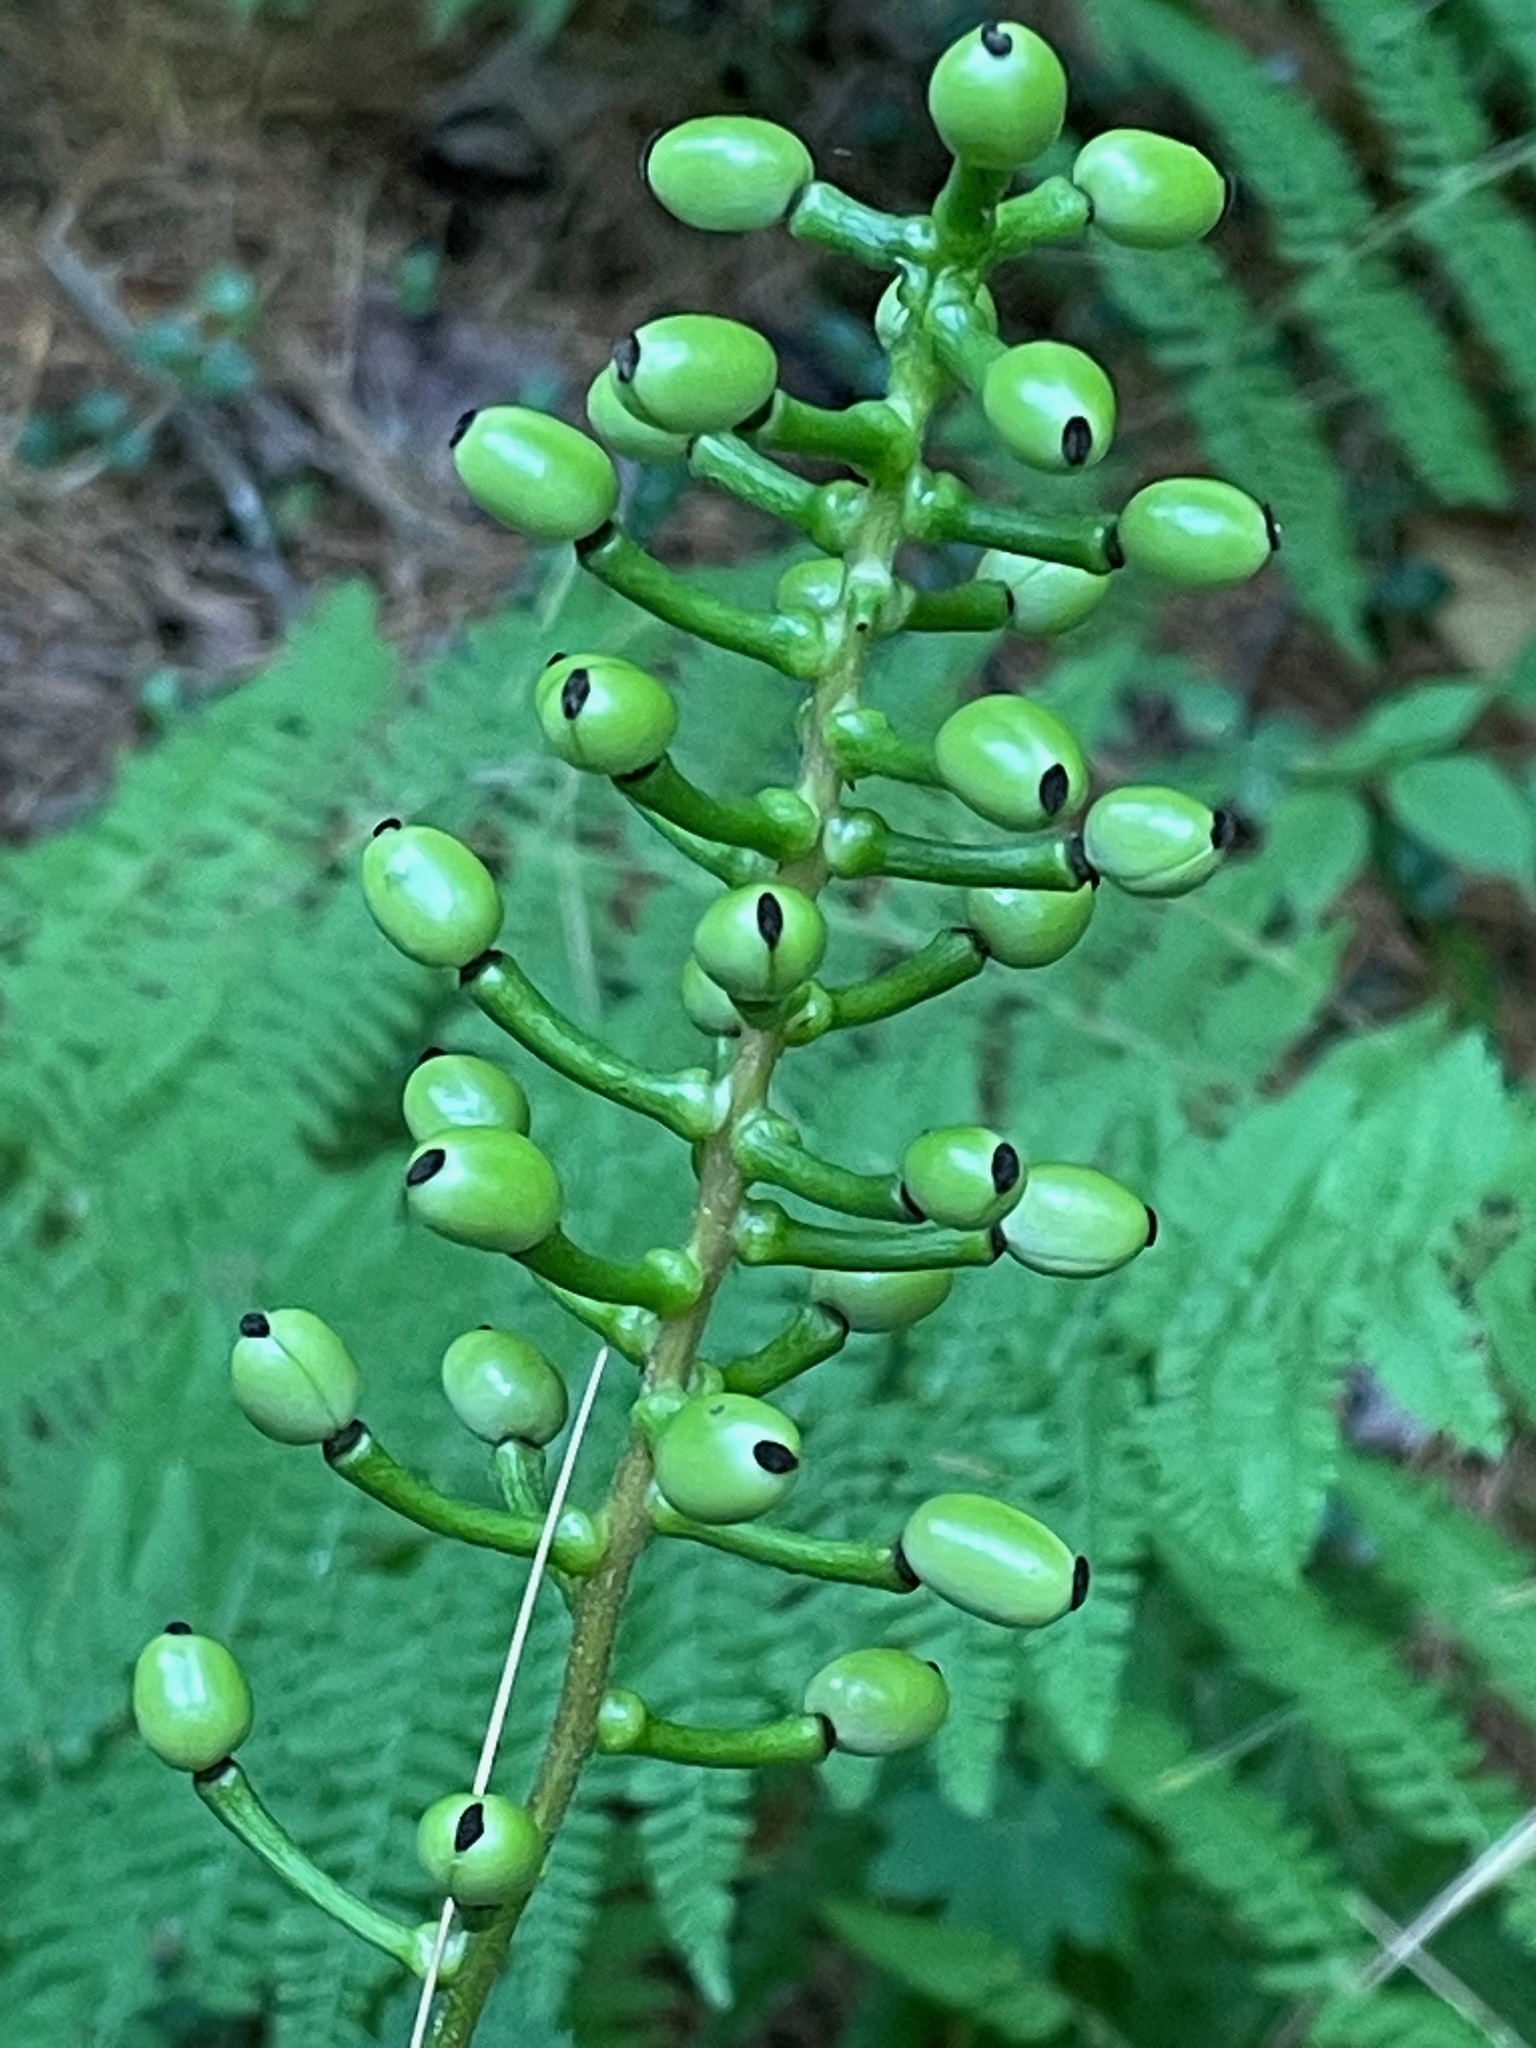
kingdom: Plantae
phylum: Tracheophyta
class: Magnoliopsida
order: Ranunculales
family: Ranunculaceae
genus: Actaea
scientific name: Actaea pachypoda
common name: Doll's-eyes
